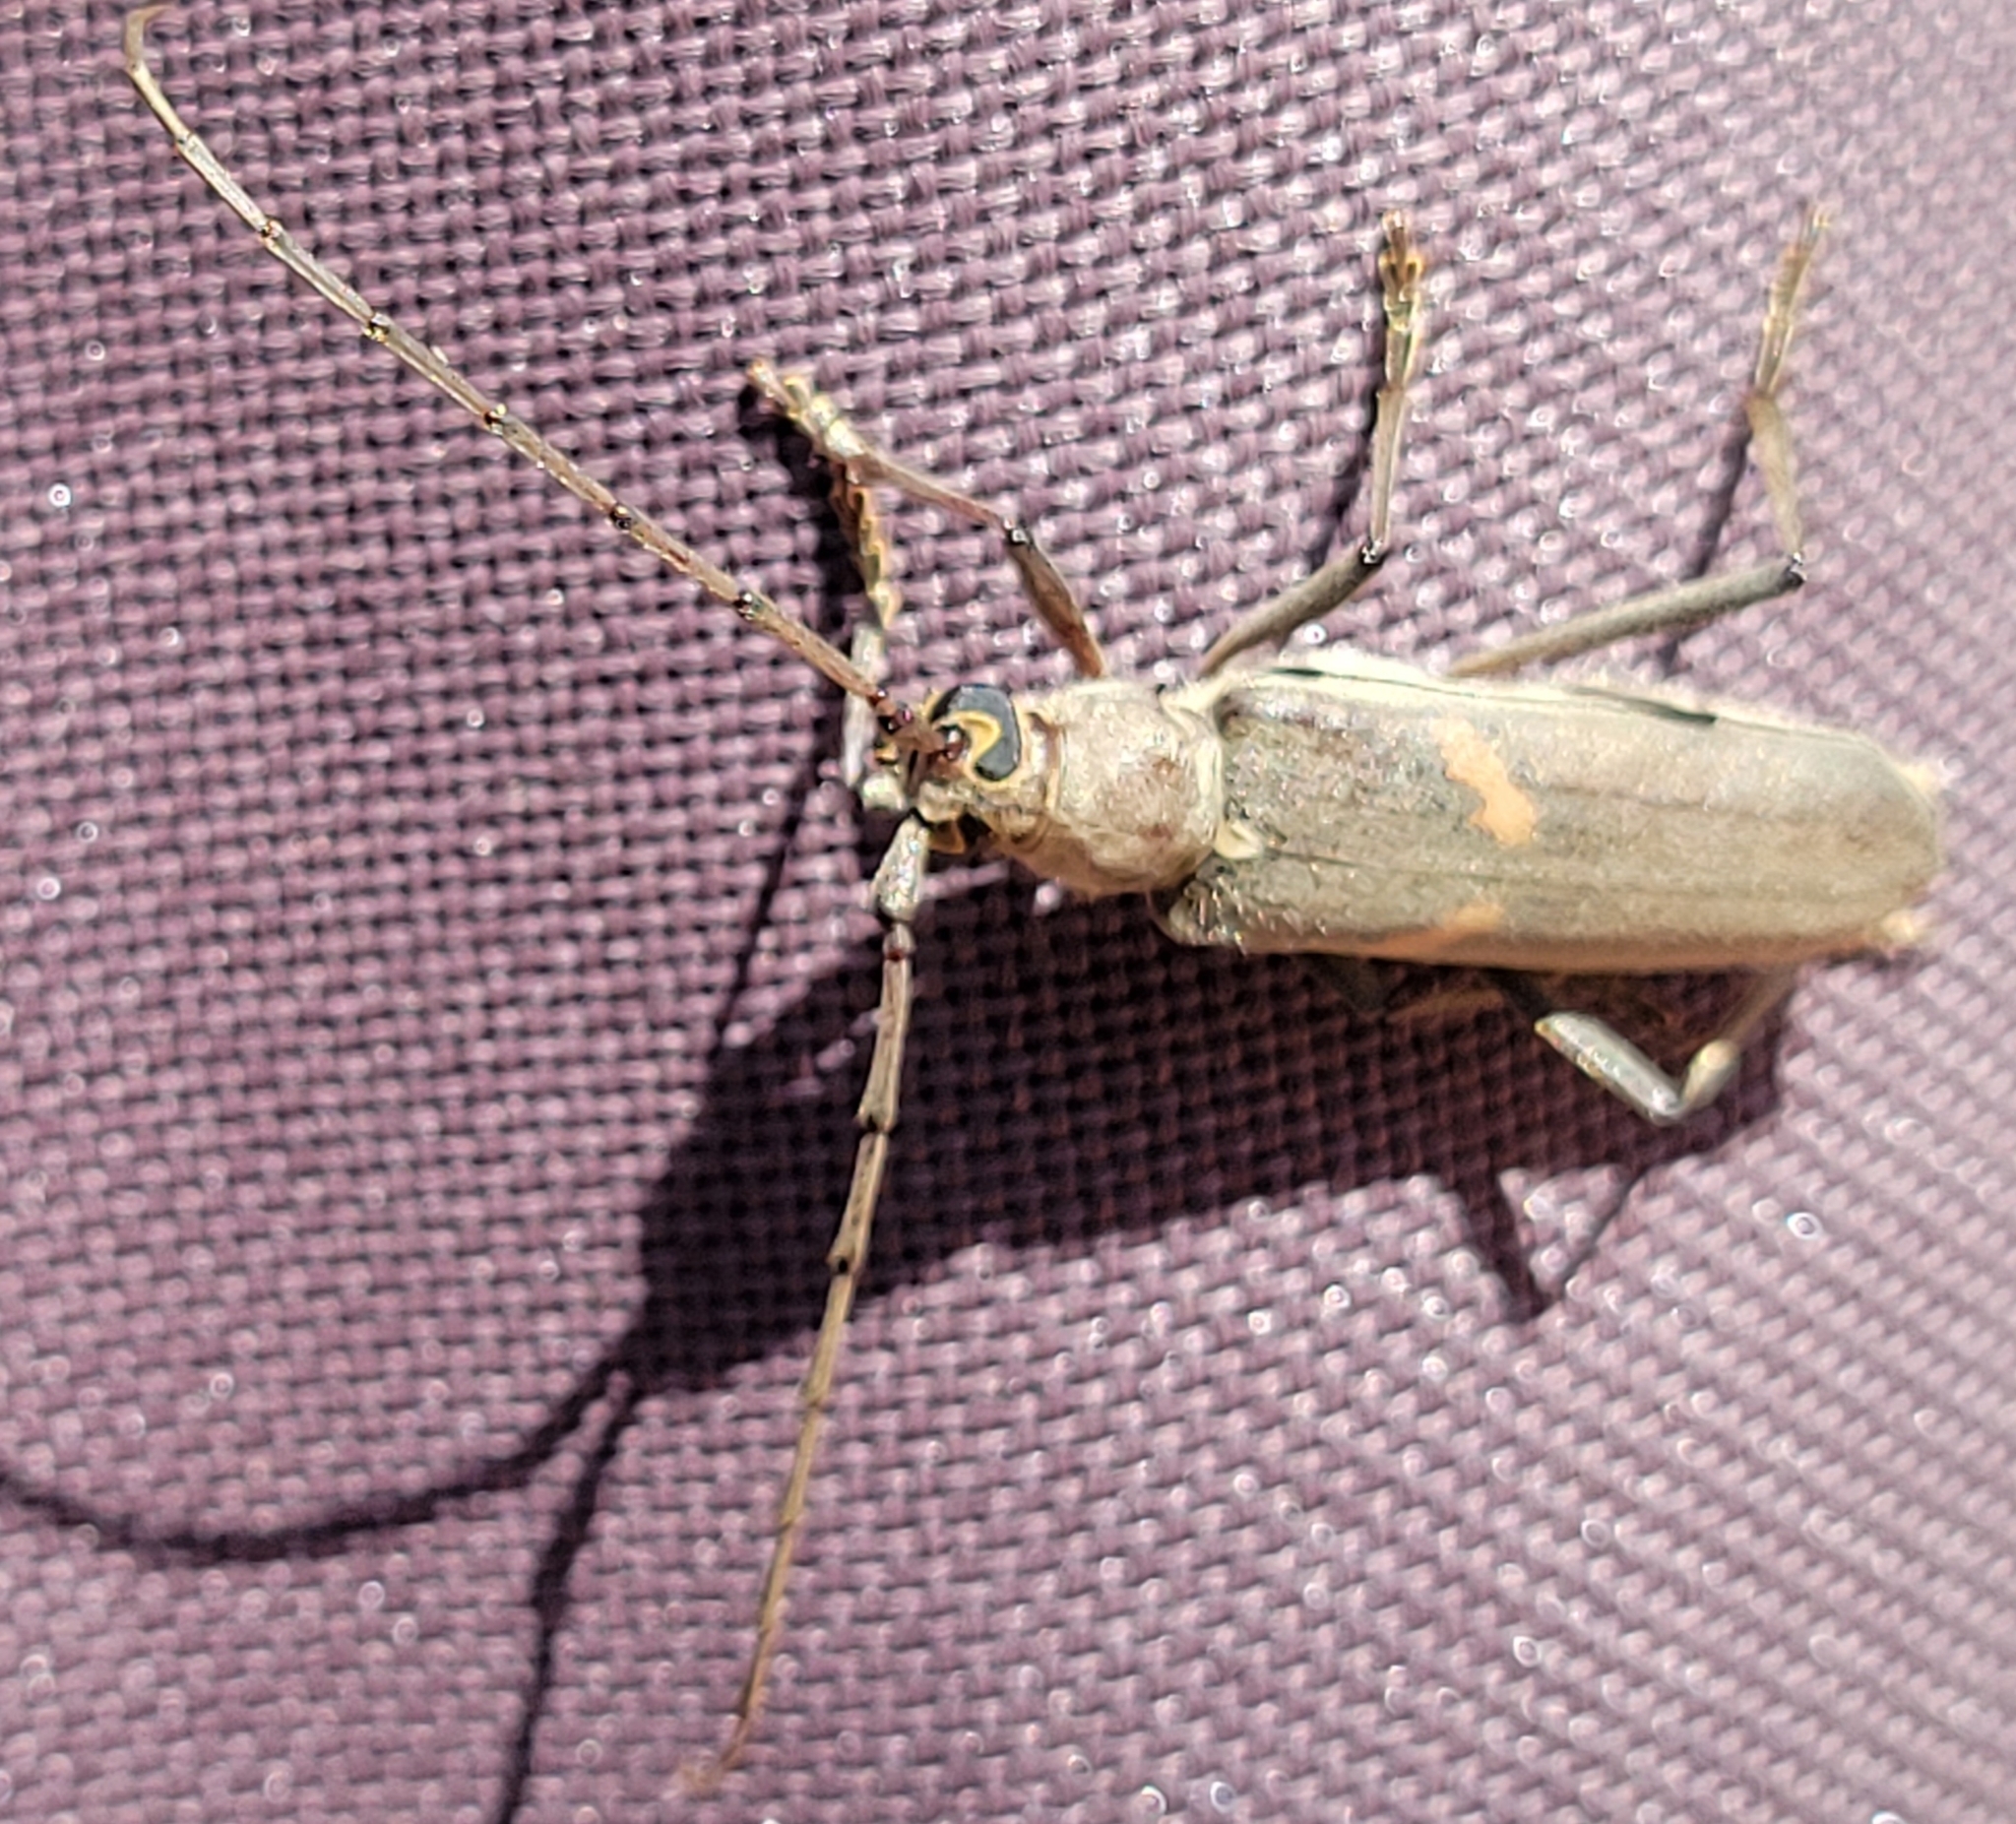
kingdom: Animalia
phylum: Arthropoda
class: Insecta
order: Coleoptera
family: Cerambycidae
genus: Knulliana
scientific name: Knulliana cincta
